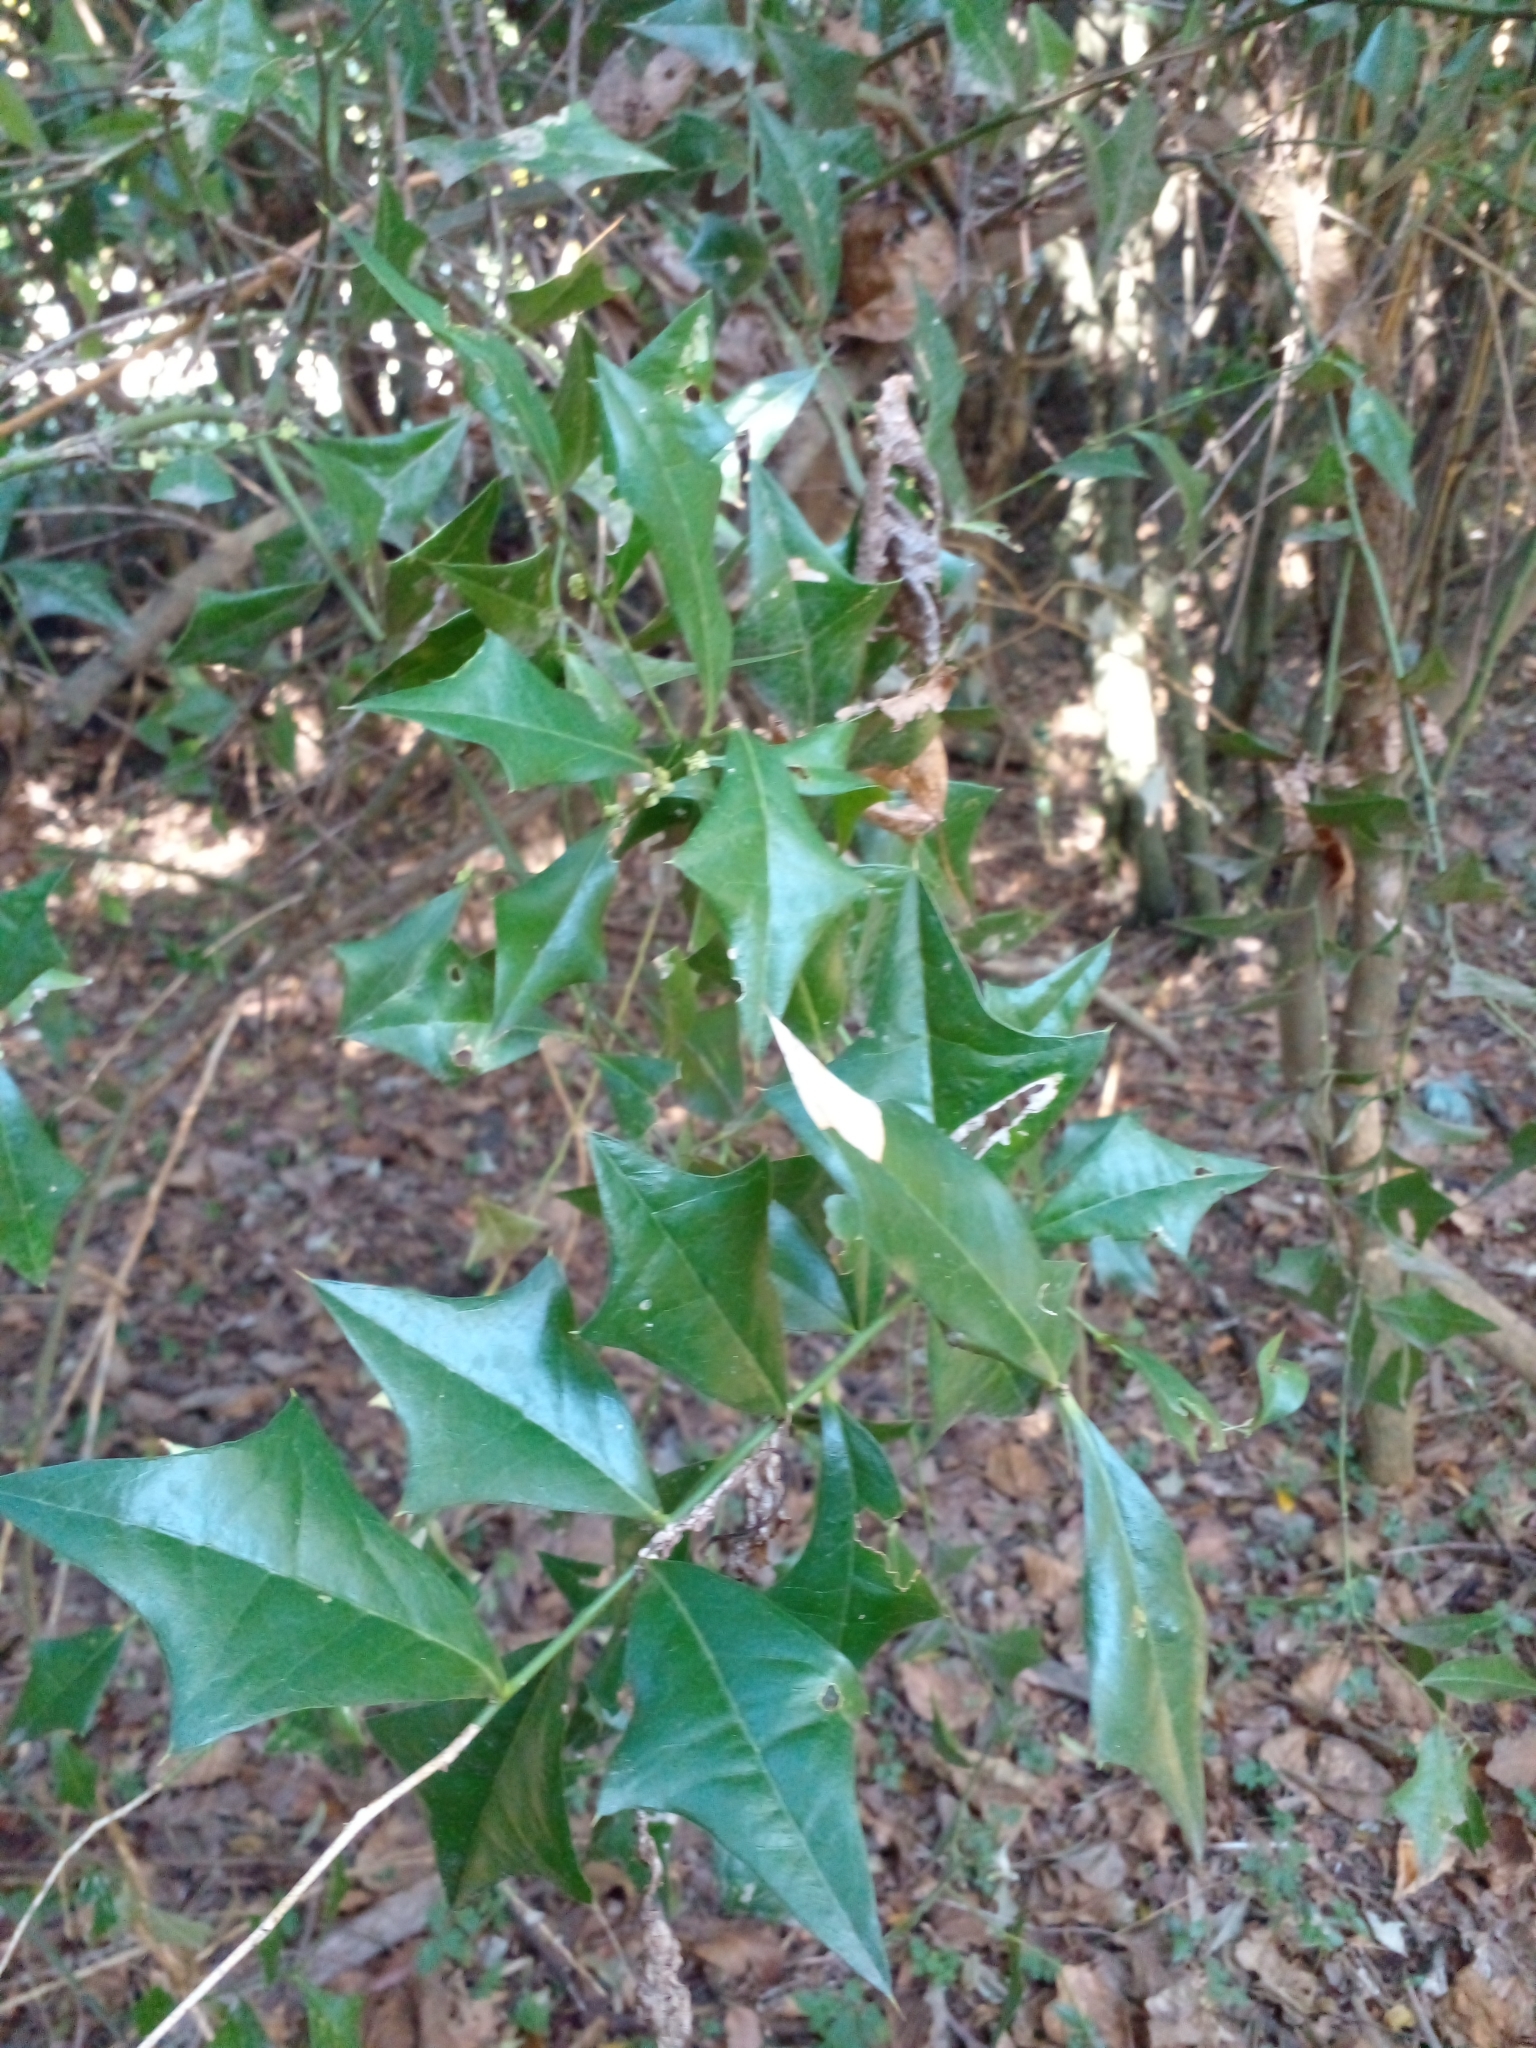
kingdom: Plantae
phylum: Tracheophyta
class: Magnoliopsida
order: Santalales
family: Cervantesiaceae
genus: Jodina
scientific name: Jodina rhombifolia
